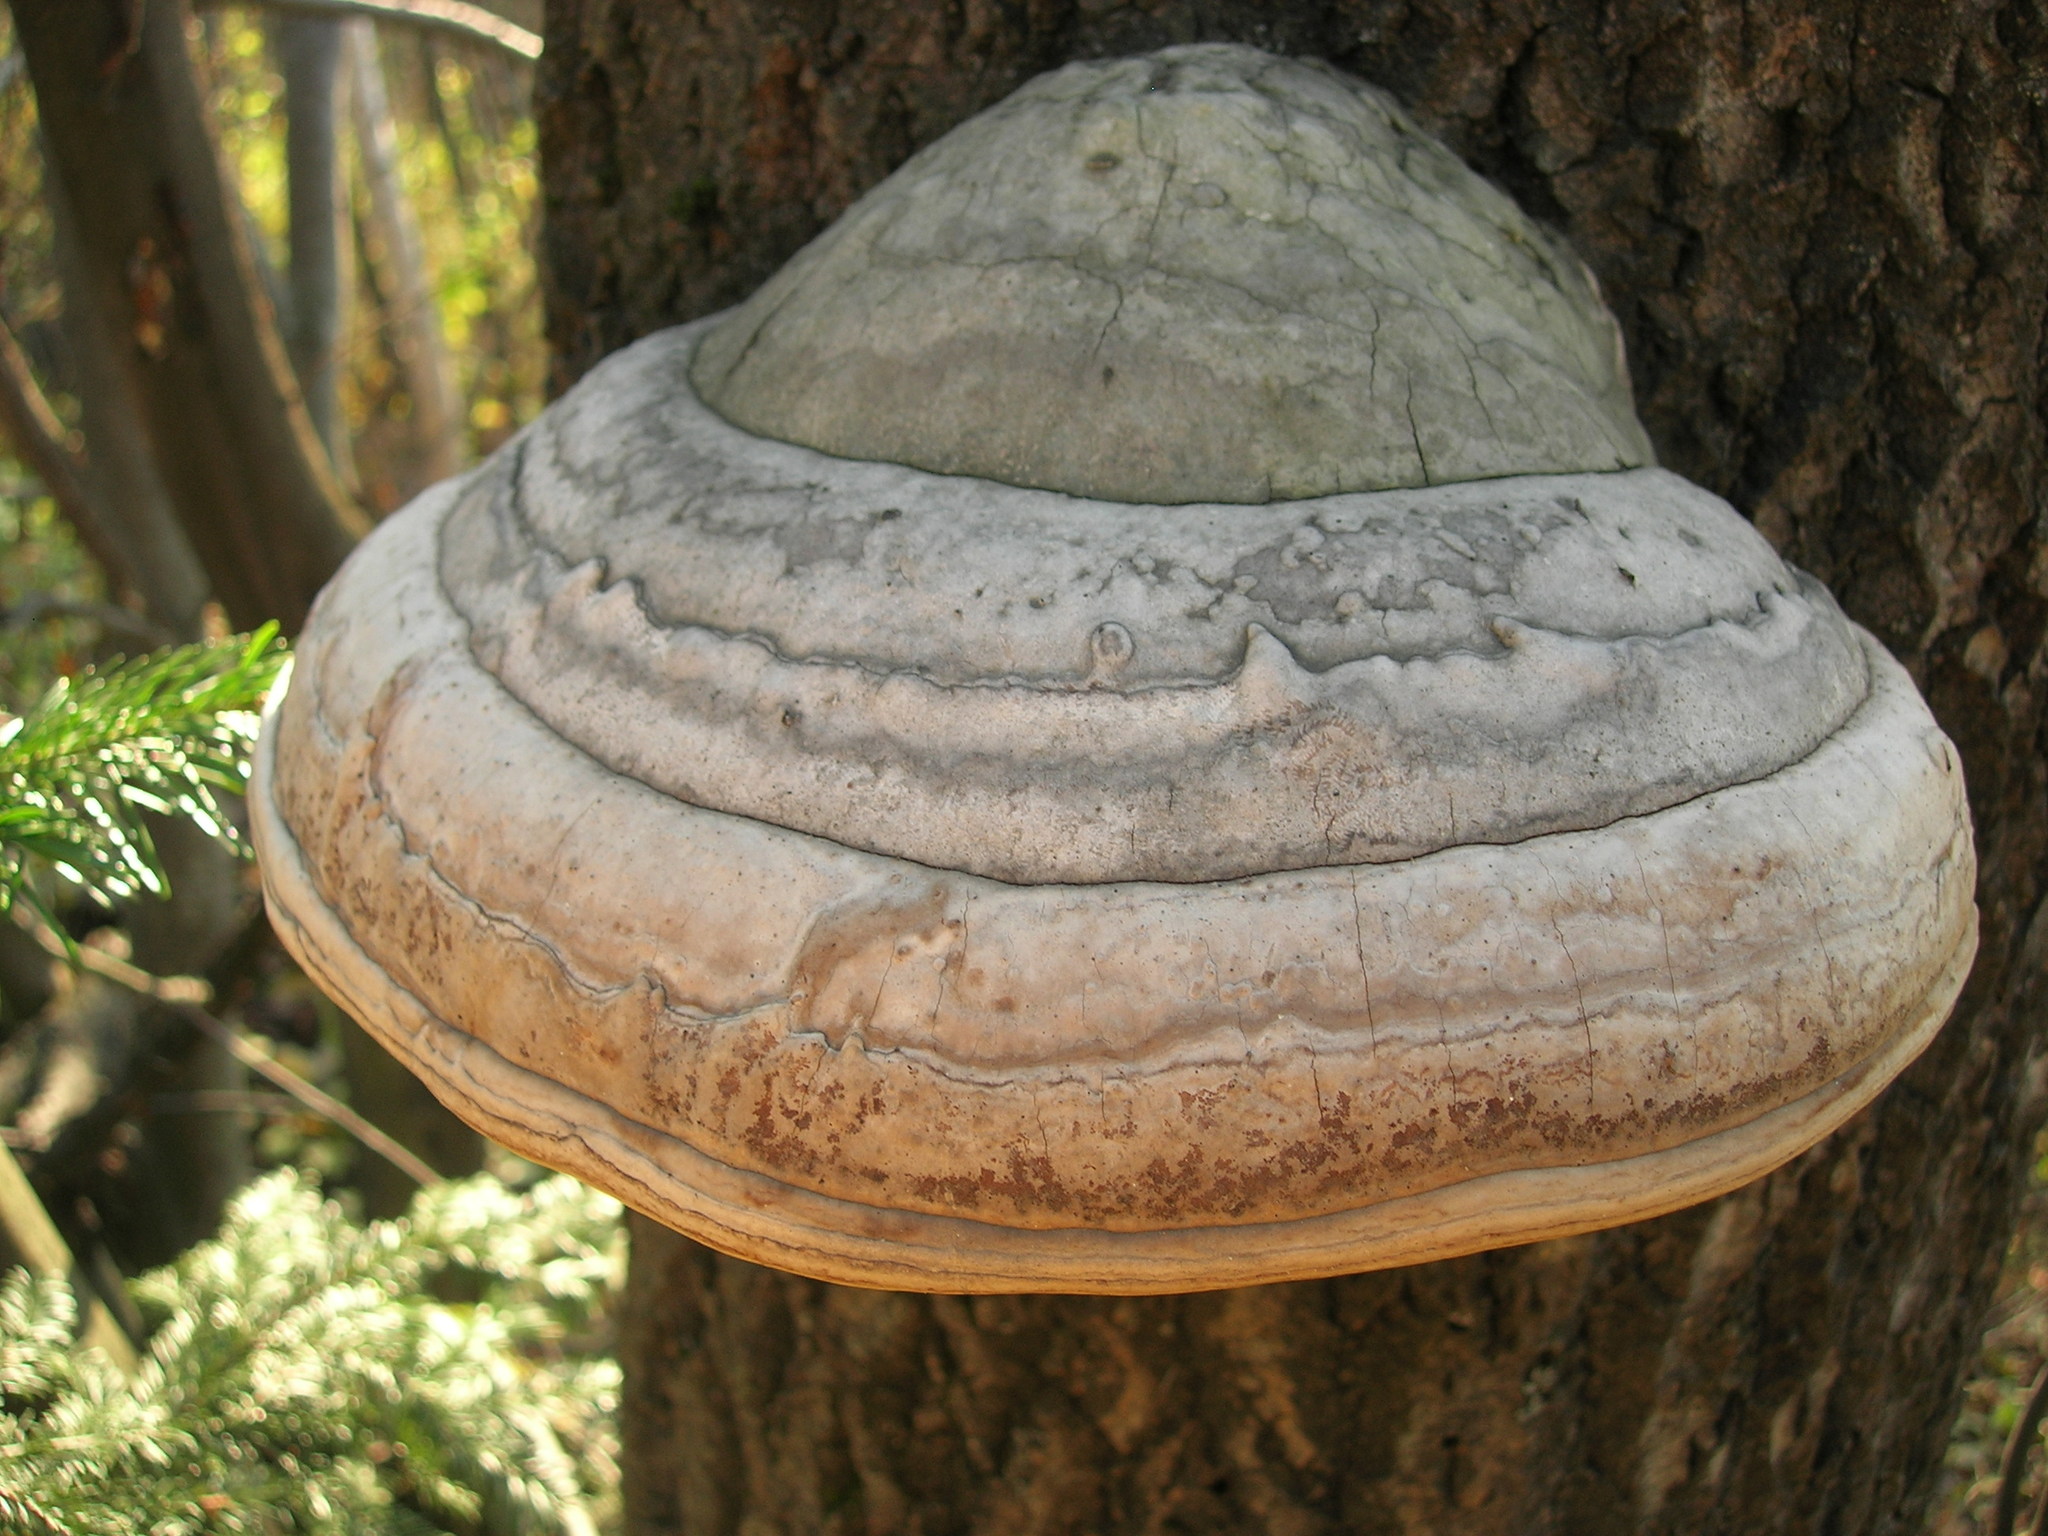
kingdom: Fungi
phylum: Basidiomycota
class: Agaricomycetes
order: Polyporales
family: Polyporaceae
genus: Fomes
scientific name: Fomes fomentarius
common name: Hoof fungus
